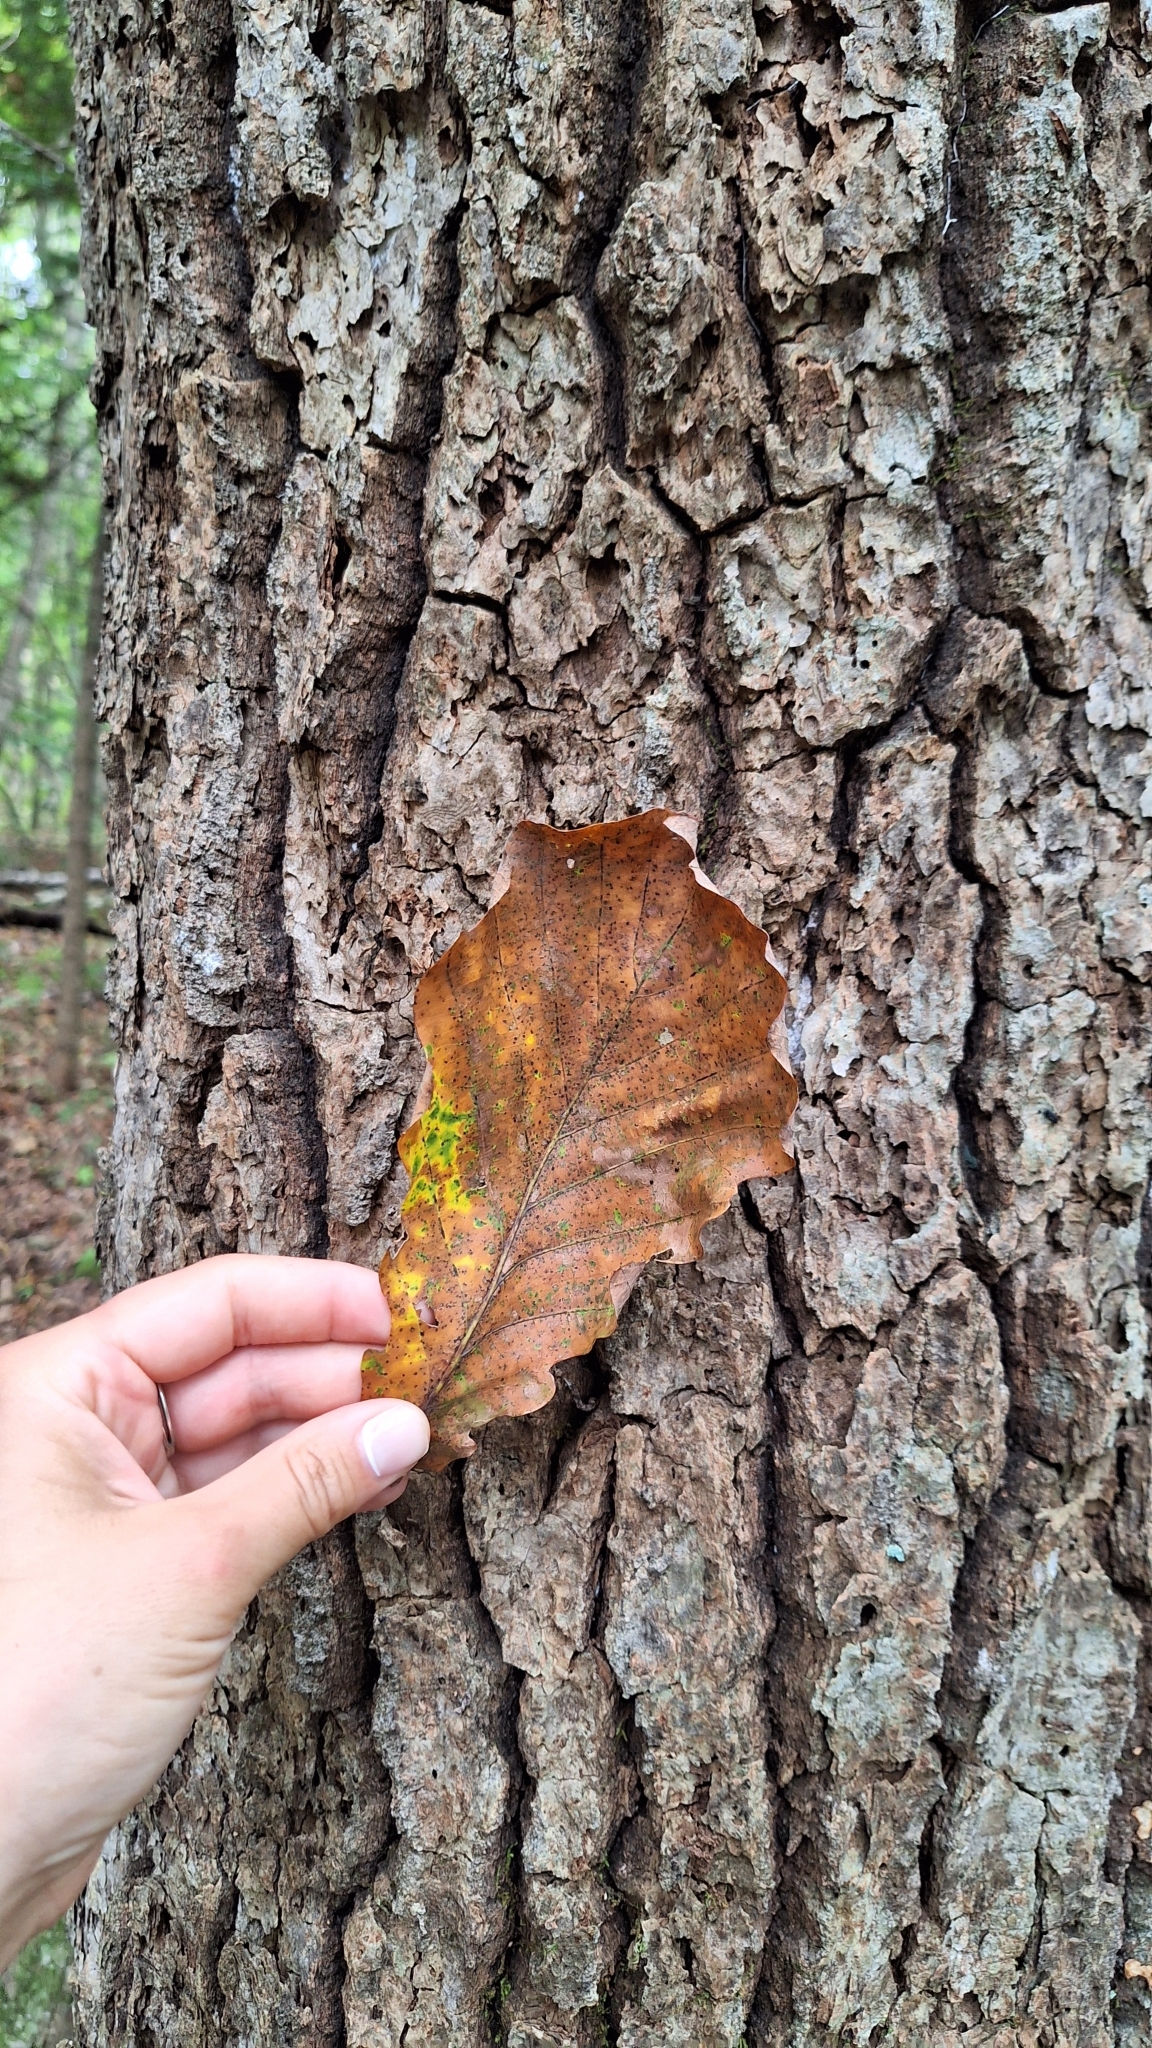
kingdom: Plantae
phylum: Tracheophyta
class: Magnoliopsida
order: Fagales
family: Fagaceae
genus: Quercus
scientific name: Quercus mongolica
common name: Mongolian oak
